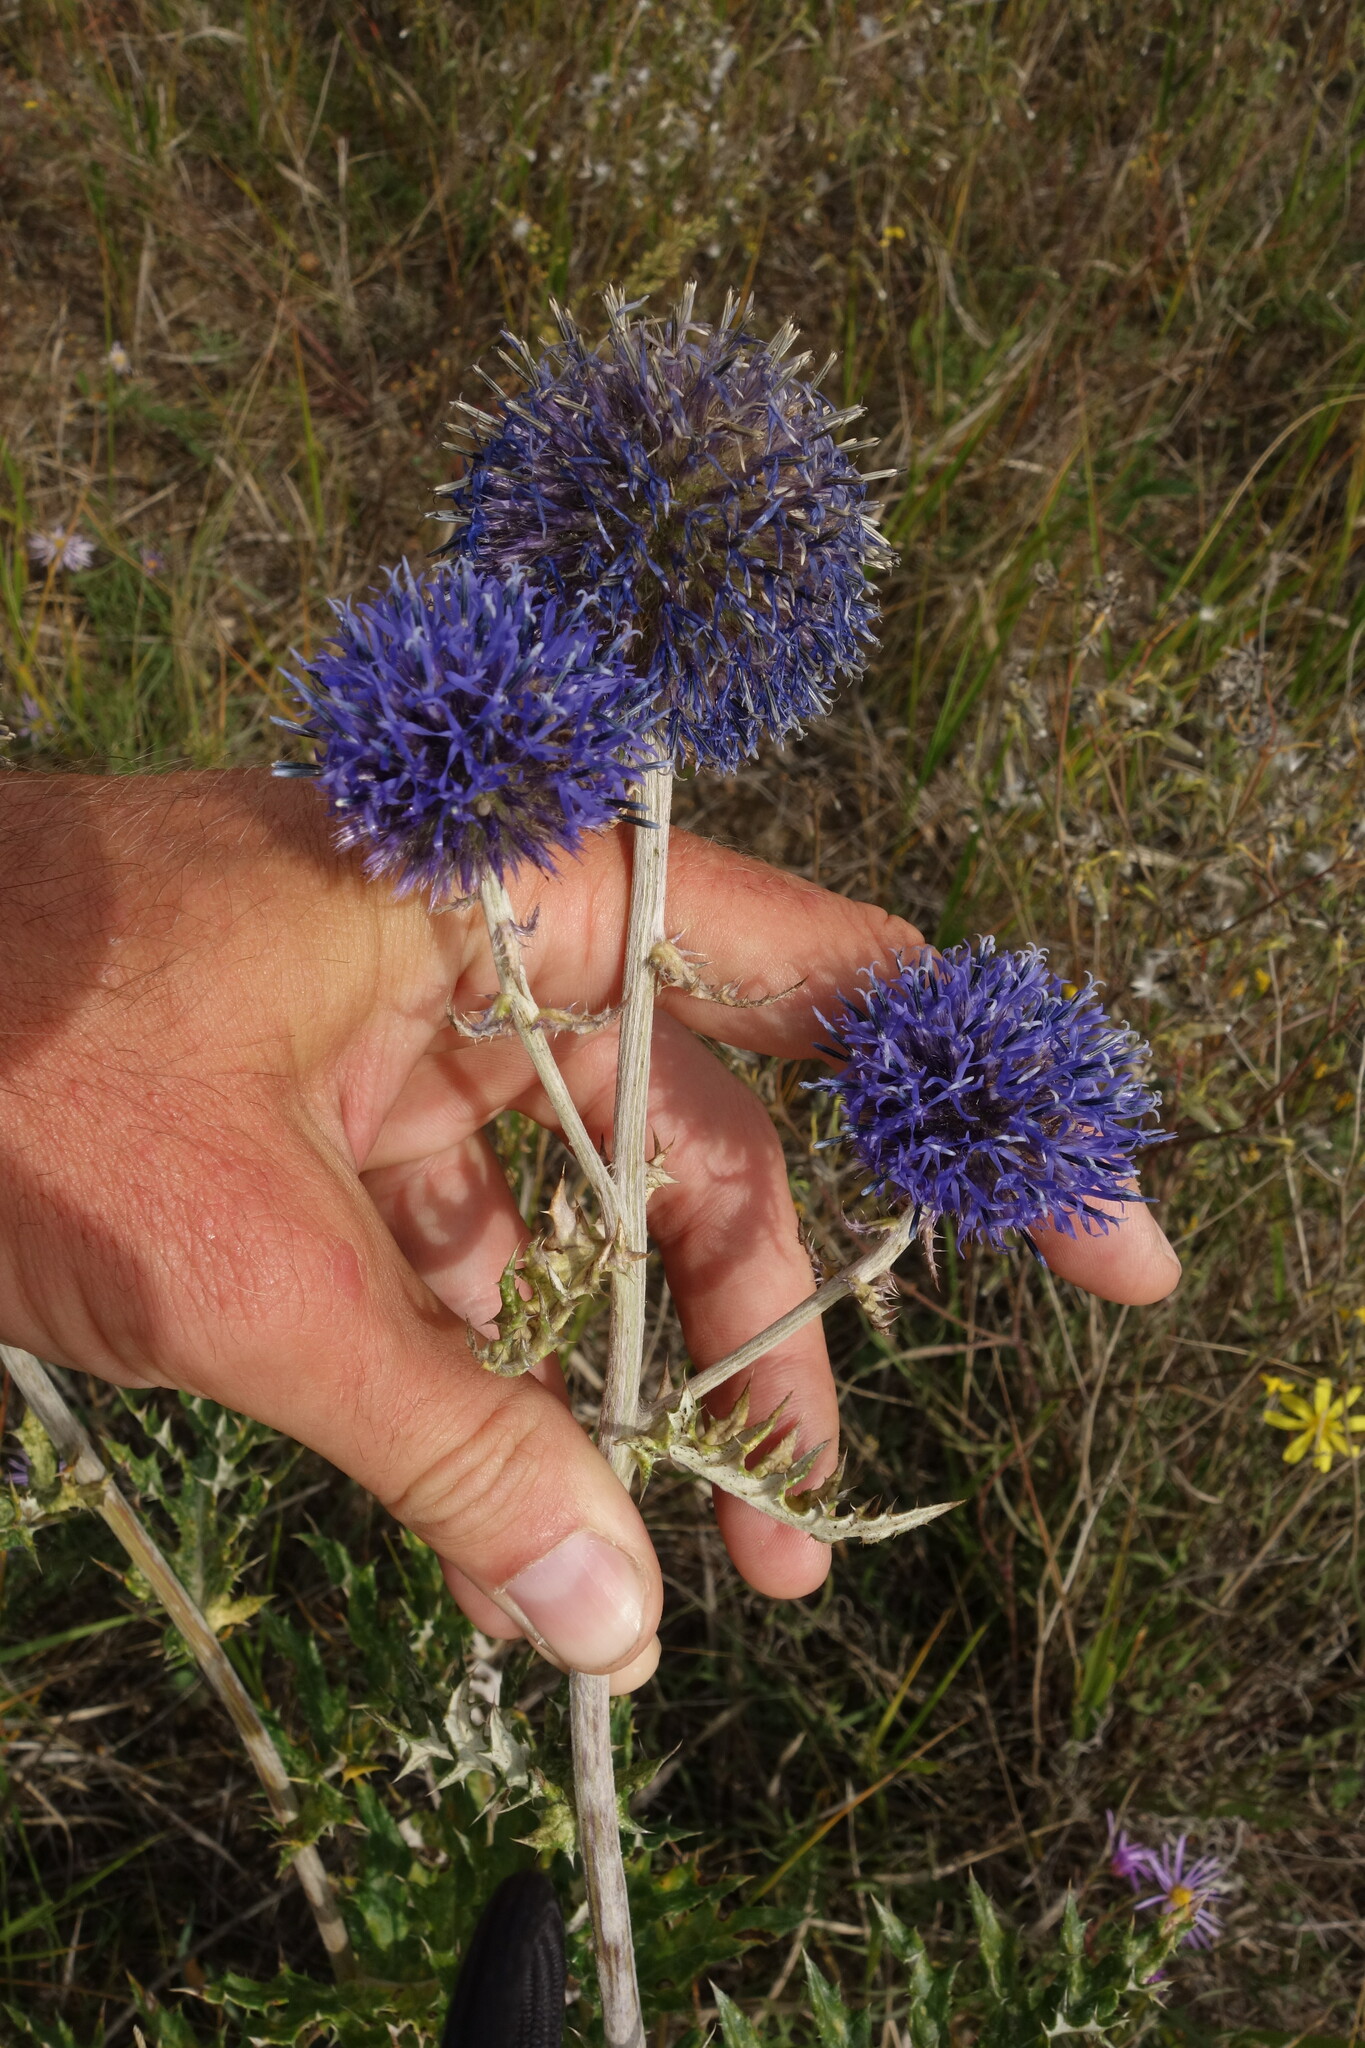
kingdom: Plantae
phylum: Tracheophyta
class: Magnoliopsida
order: Asterales
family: Asteraceae
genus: Echinops
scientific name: Echinops davuricus
